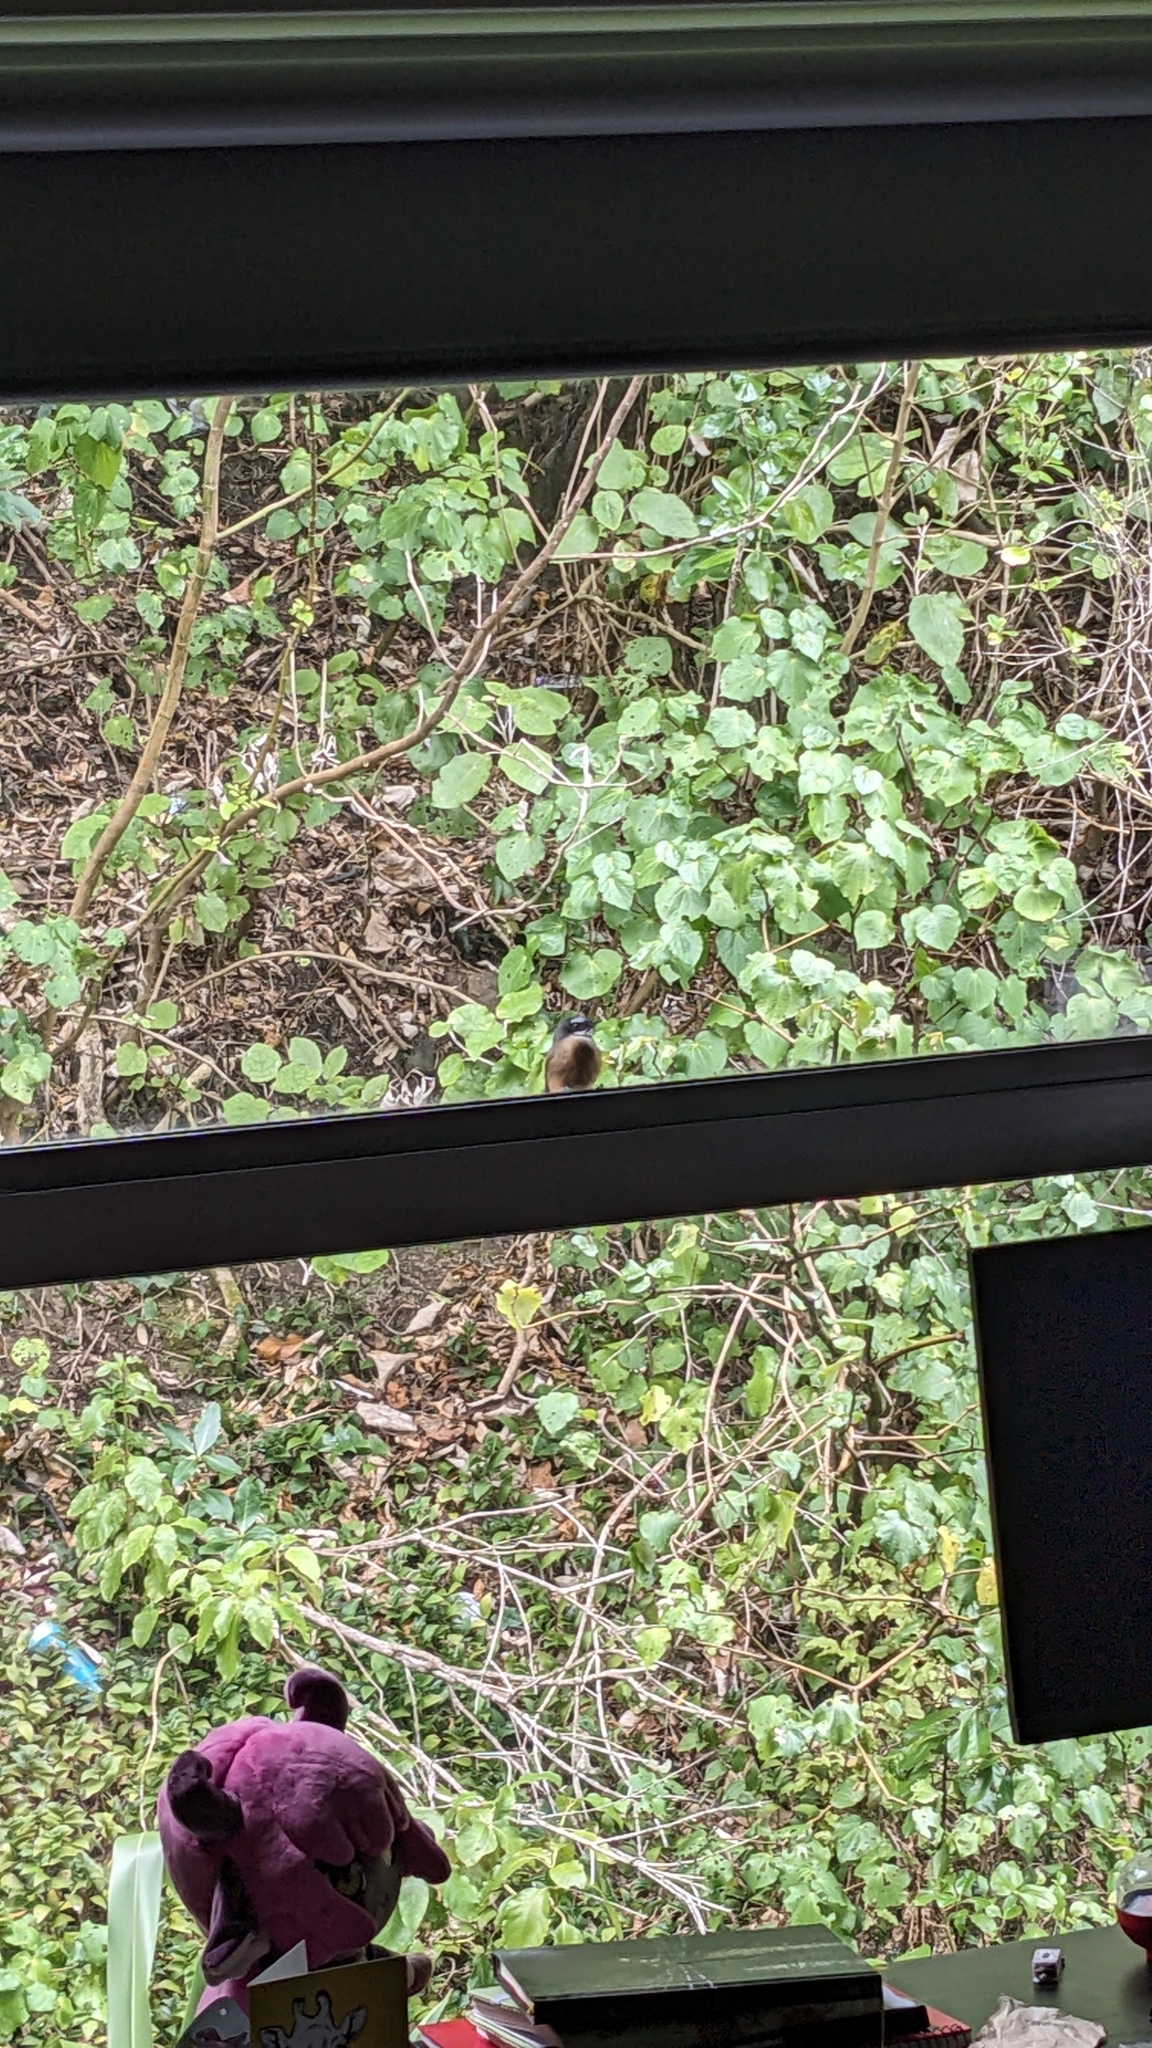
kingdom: Animalia
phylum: Chordata
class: Aves
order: Passeriformes
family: Rhipiduridae
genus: Rhipidura
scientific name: Rhipidura fuliginosa
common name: New zealand fantail
